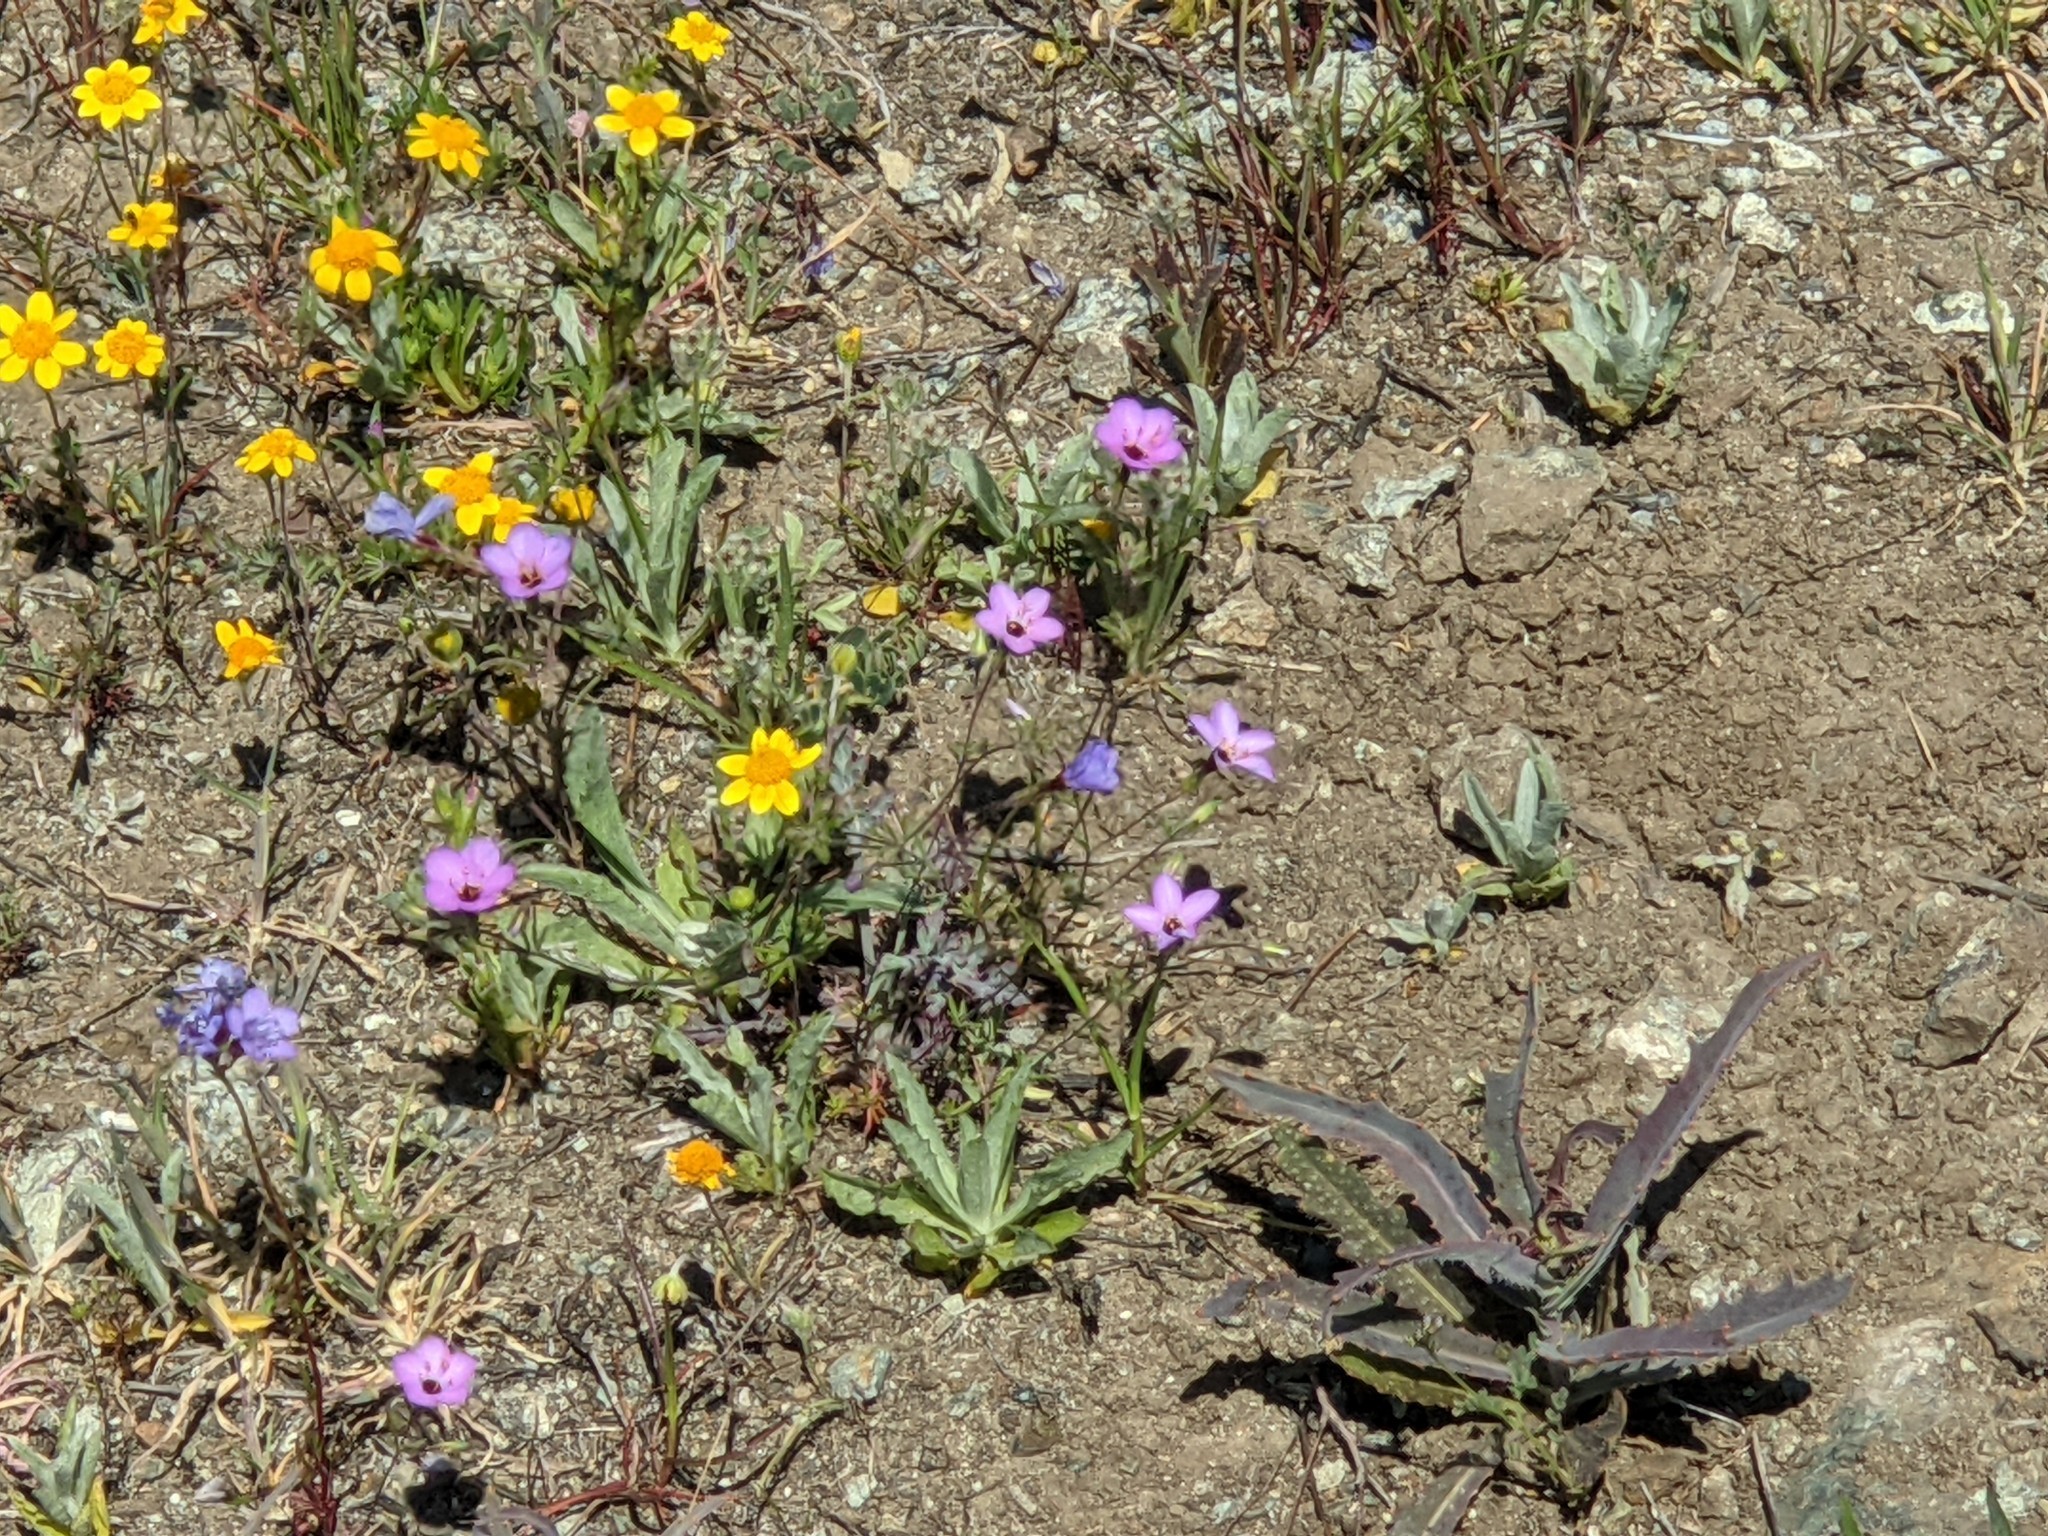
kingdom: Plantae
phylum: Tracheophyta
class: Magnoliopsida
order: Ericales
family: Polemoniaceae
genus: Leptosiphon
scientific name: Leptosiphon ambiguus
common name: Serpentine linanthus
